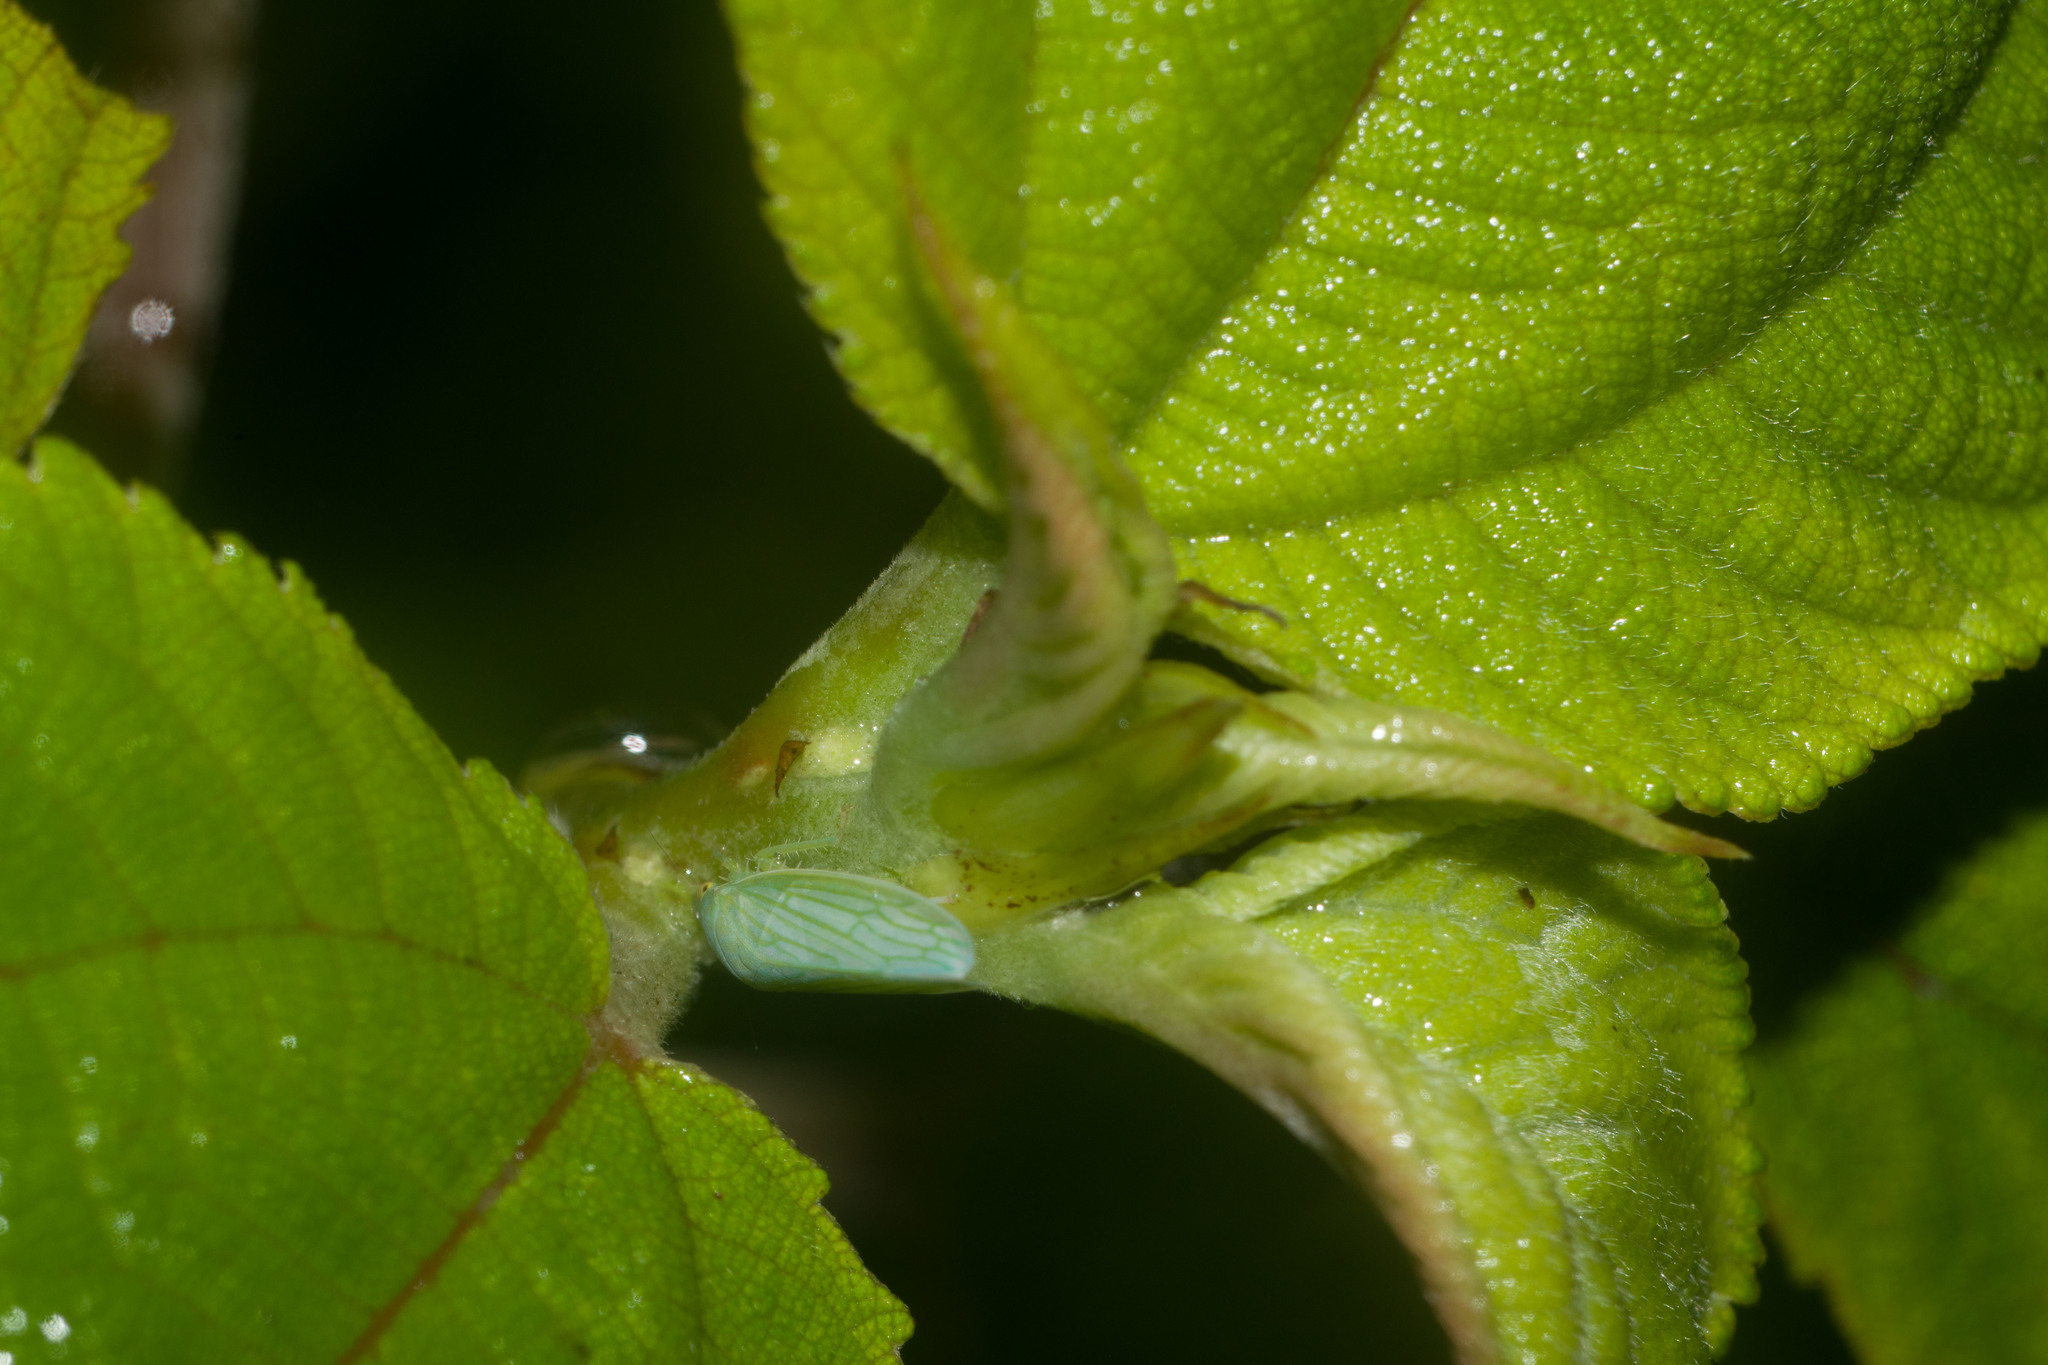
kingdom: Plantae
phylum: Tracheophyta
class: Magnoliopsida
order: Rosales
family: Urticaceae
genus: Pipturus
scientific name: Pipturus albidus
